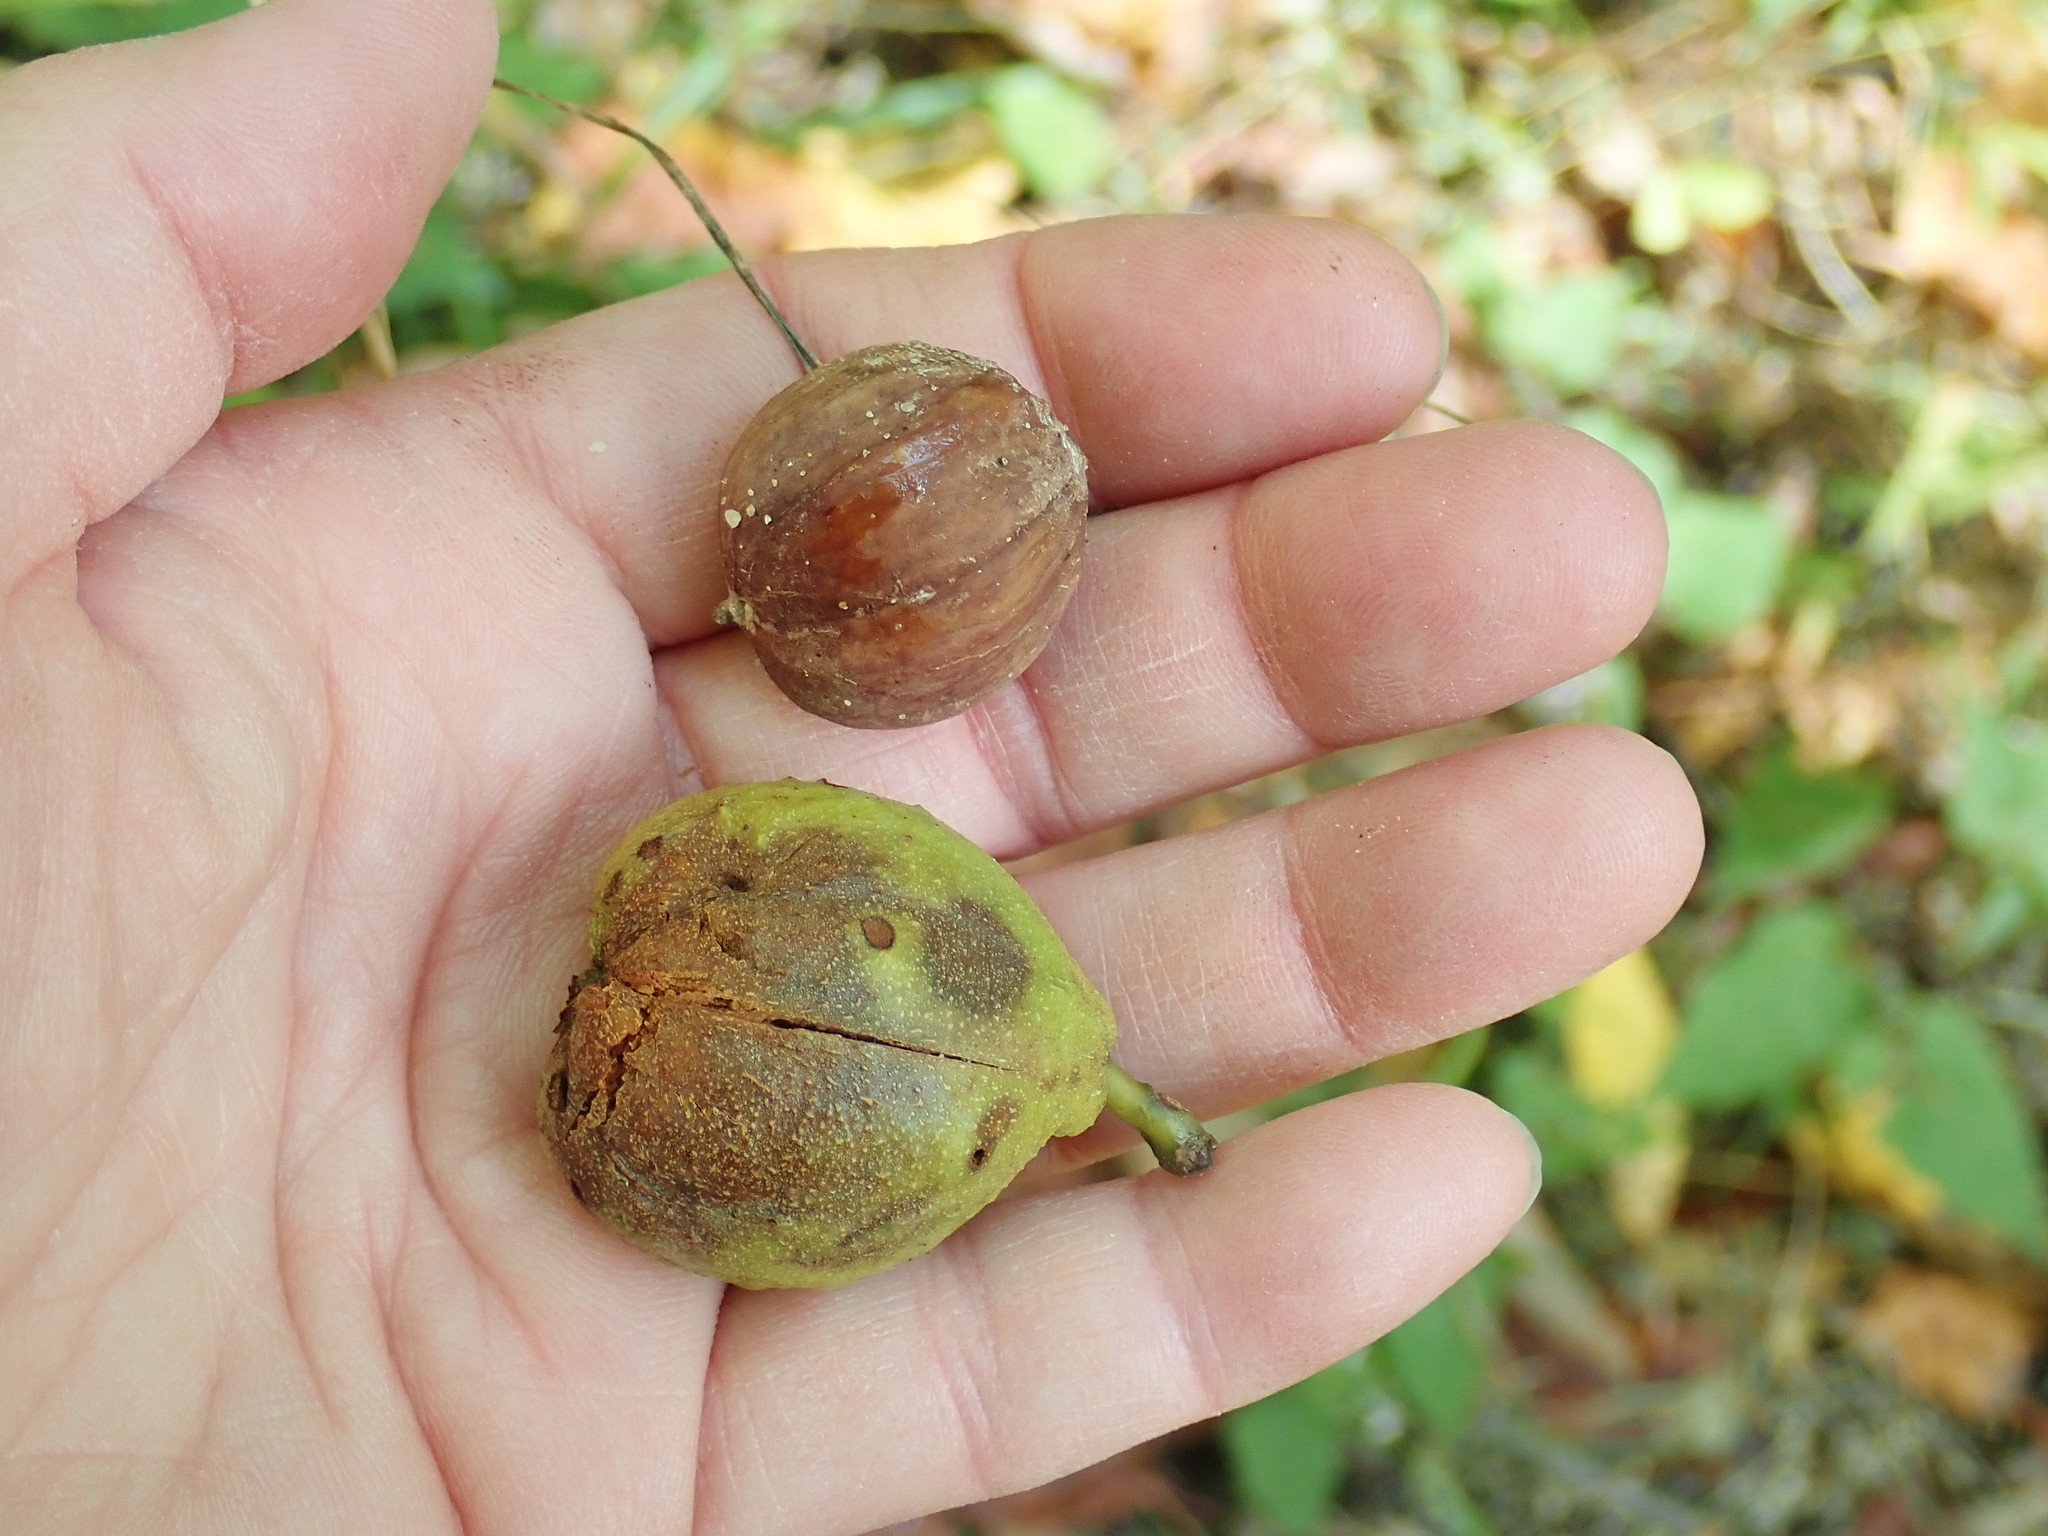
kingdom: Plantae
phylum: Tracheophyta
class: Magnoliopsida
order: Fagales
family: Juglandaceae
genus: Carya
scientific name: Carya
